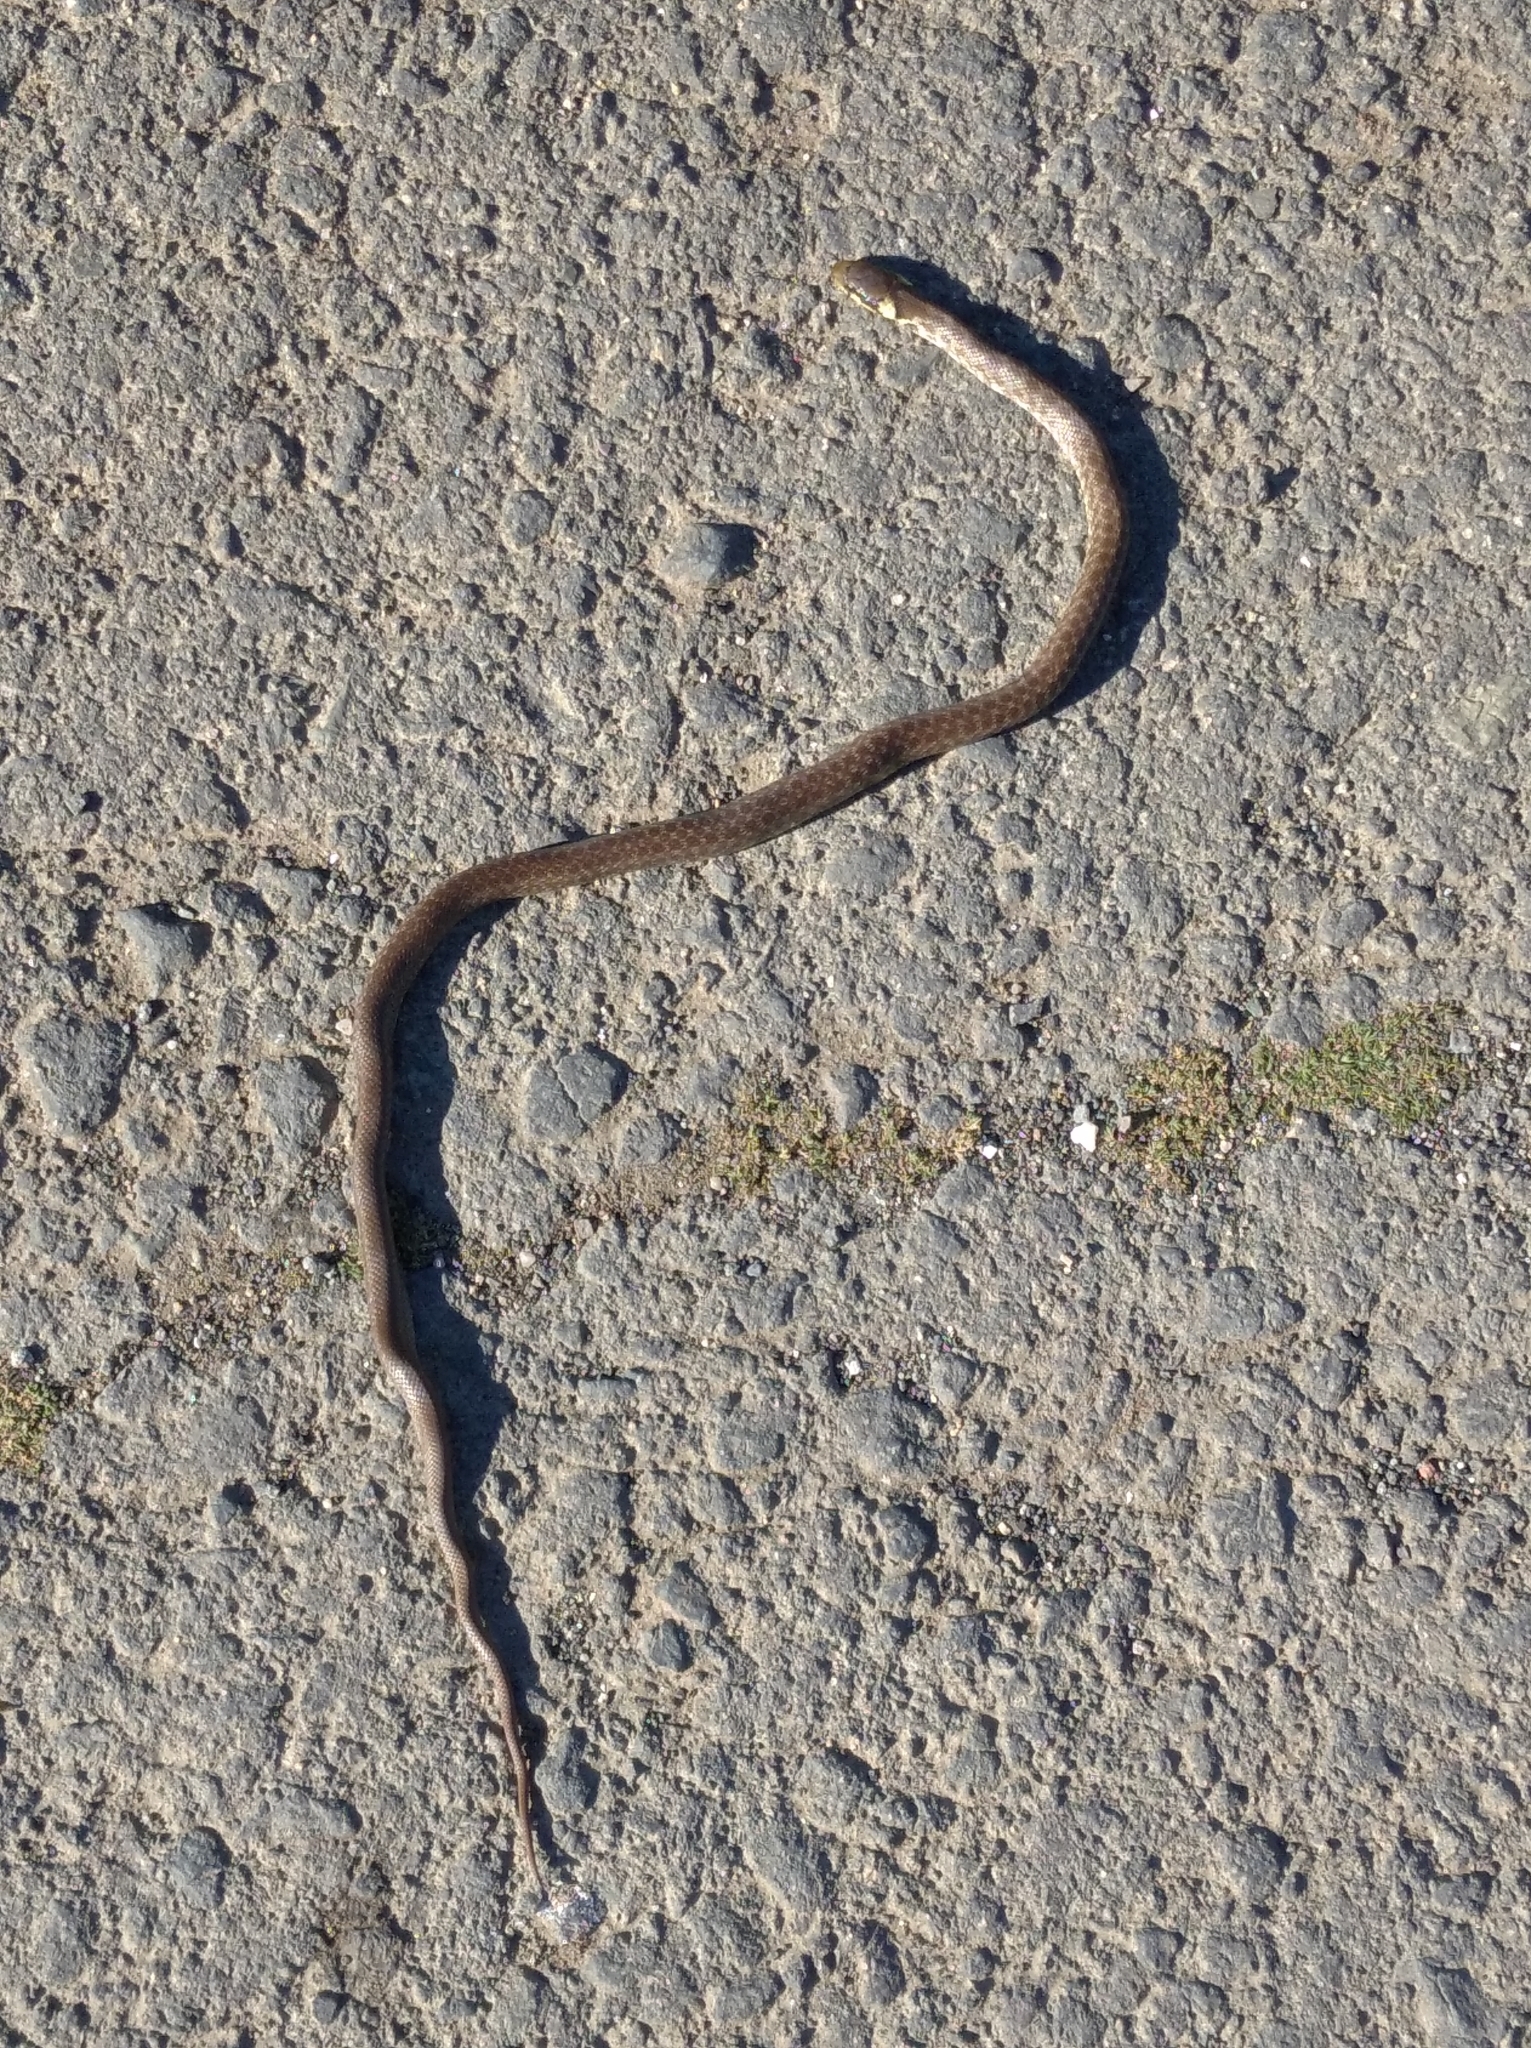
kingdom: Animalia
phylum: Chordata
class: Squamata
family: Colubridae
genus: Zamenis
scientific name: Zamenis longissimus
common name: Aesculapean snake
